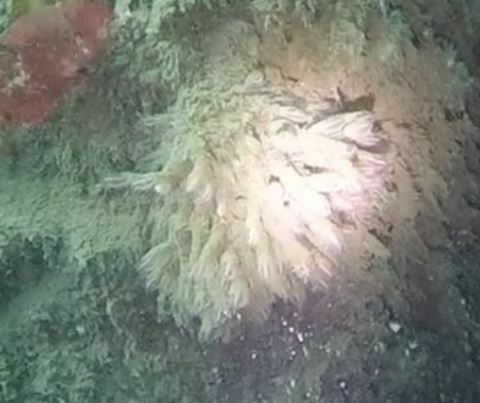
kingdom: Animalia
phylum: Chordata
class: Ascidiacea
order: Aplousobranchia
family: Clavelinidae
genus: Clavelina
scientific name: Clavelina huntsmani
